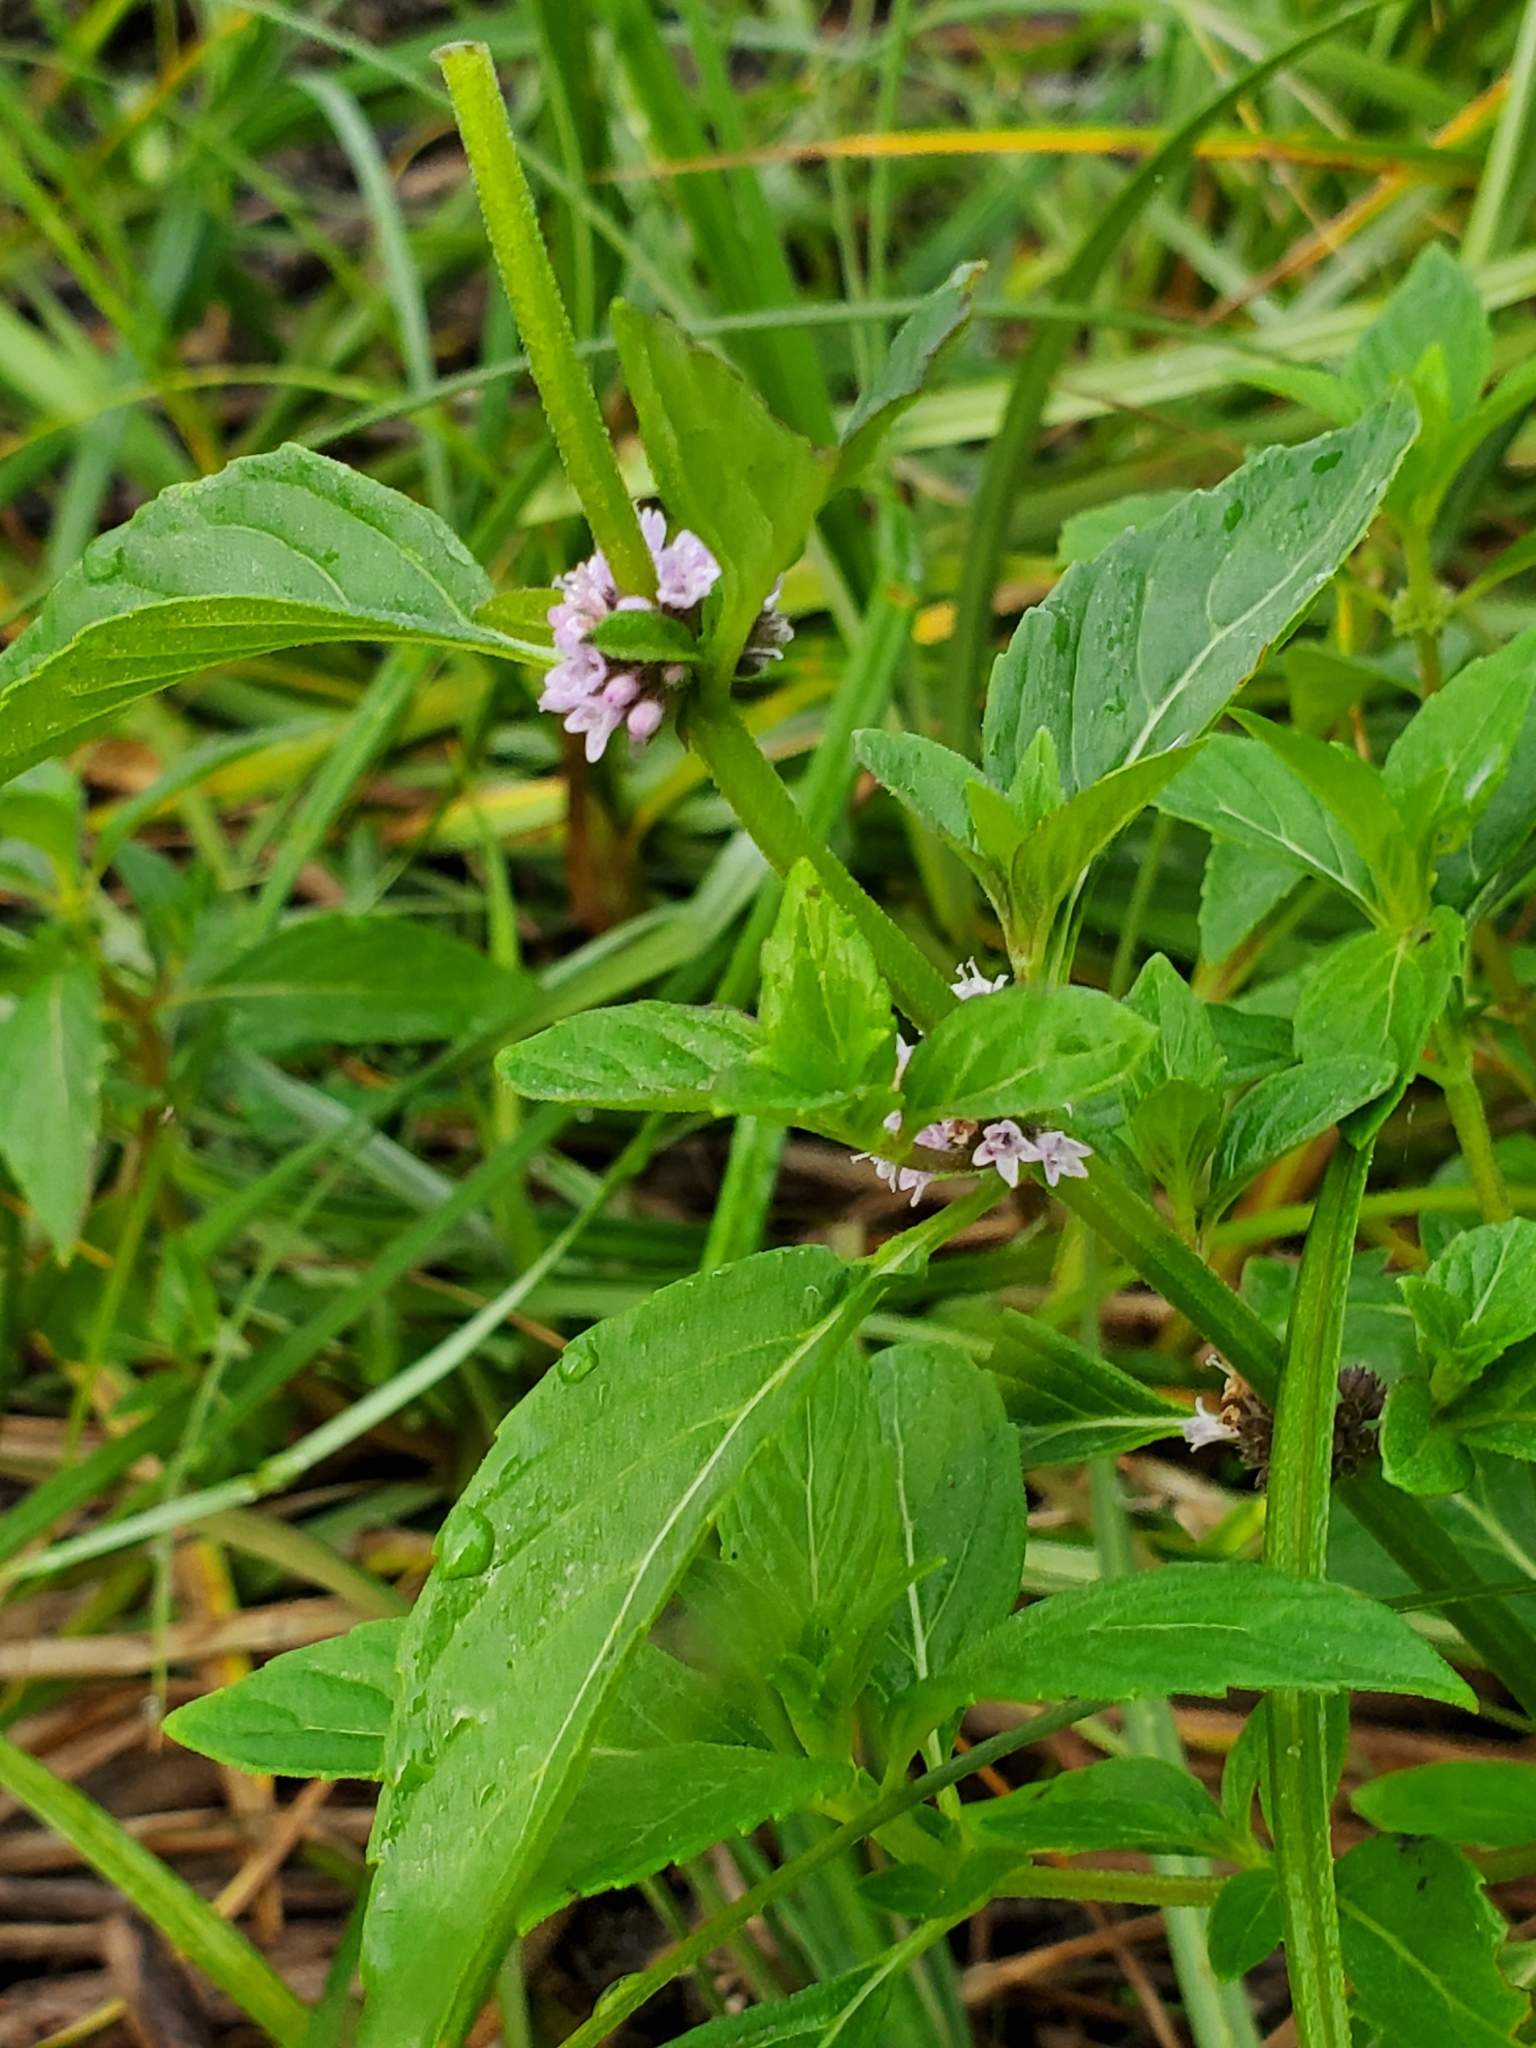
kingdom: Plantae
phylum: Tracheophyta
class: Magnoliopsida
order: Lamiales
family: Lamiaceae
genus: Mentha
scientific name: Mentha canadensis
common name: American corn mint
